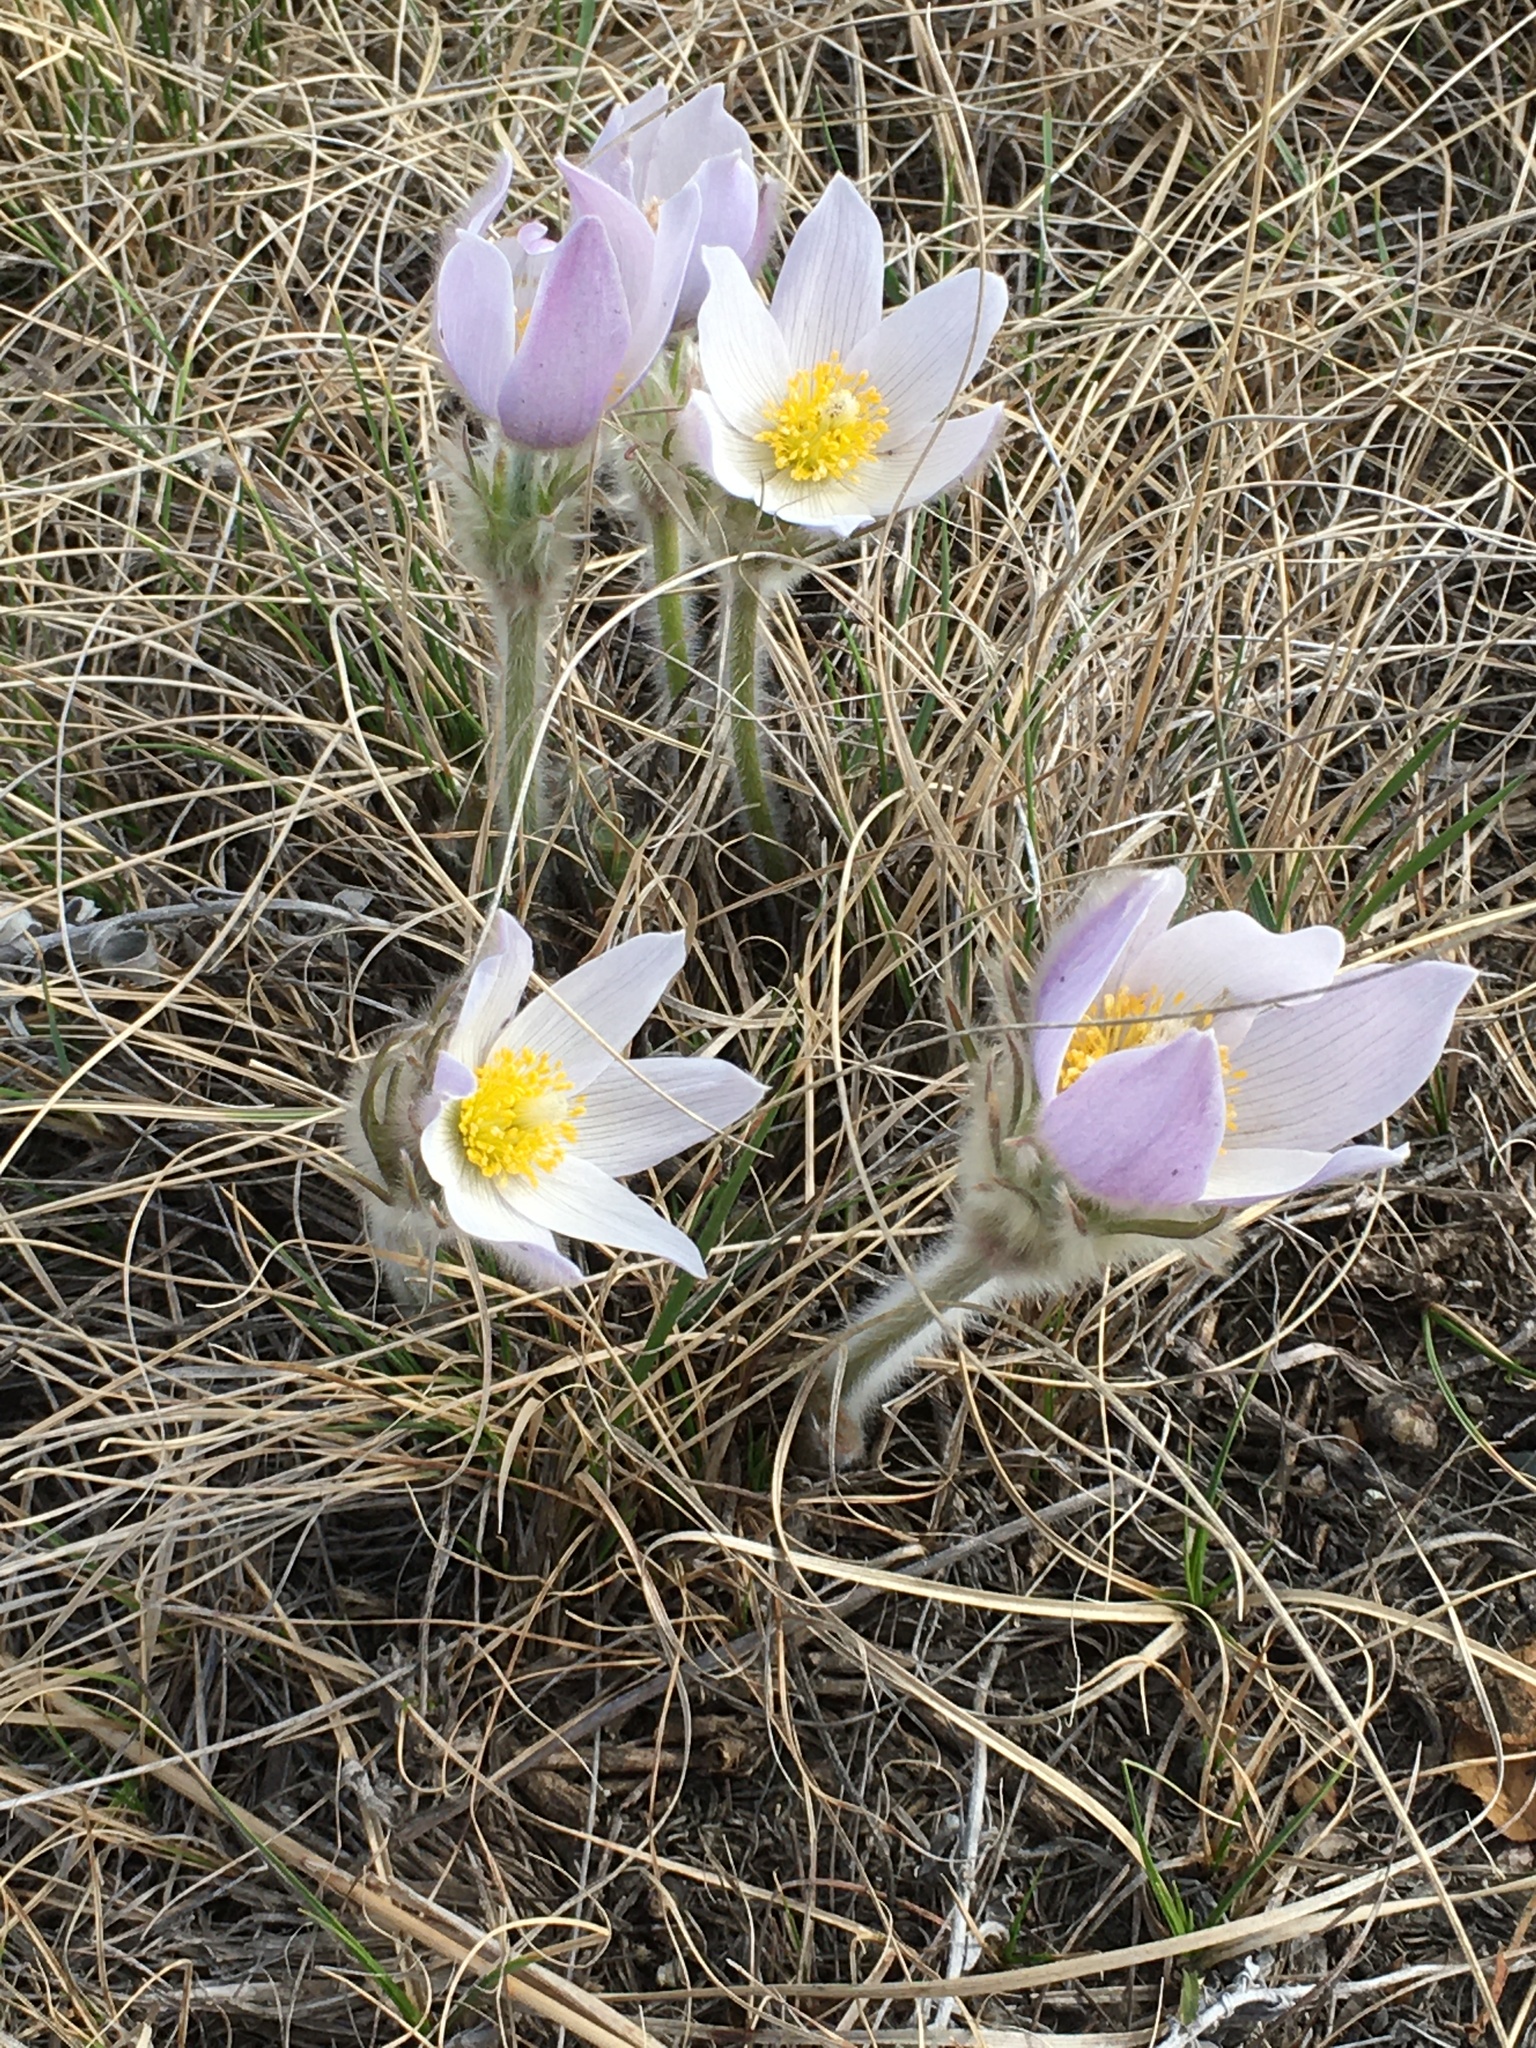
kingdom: Plantae
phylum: Tracheophyta
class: Magnoliopsida
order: Ranunculales
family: Ranunculaceae
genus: Pulsatilla
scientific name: Pulsatilla nuttalliana
